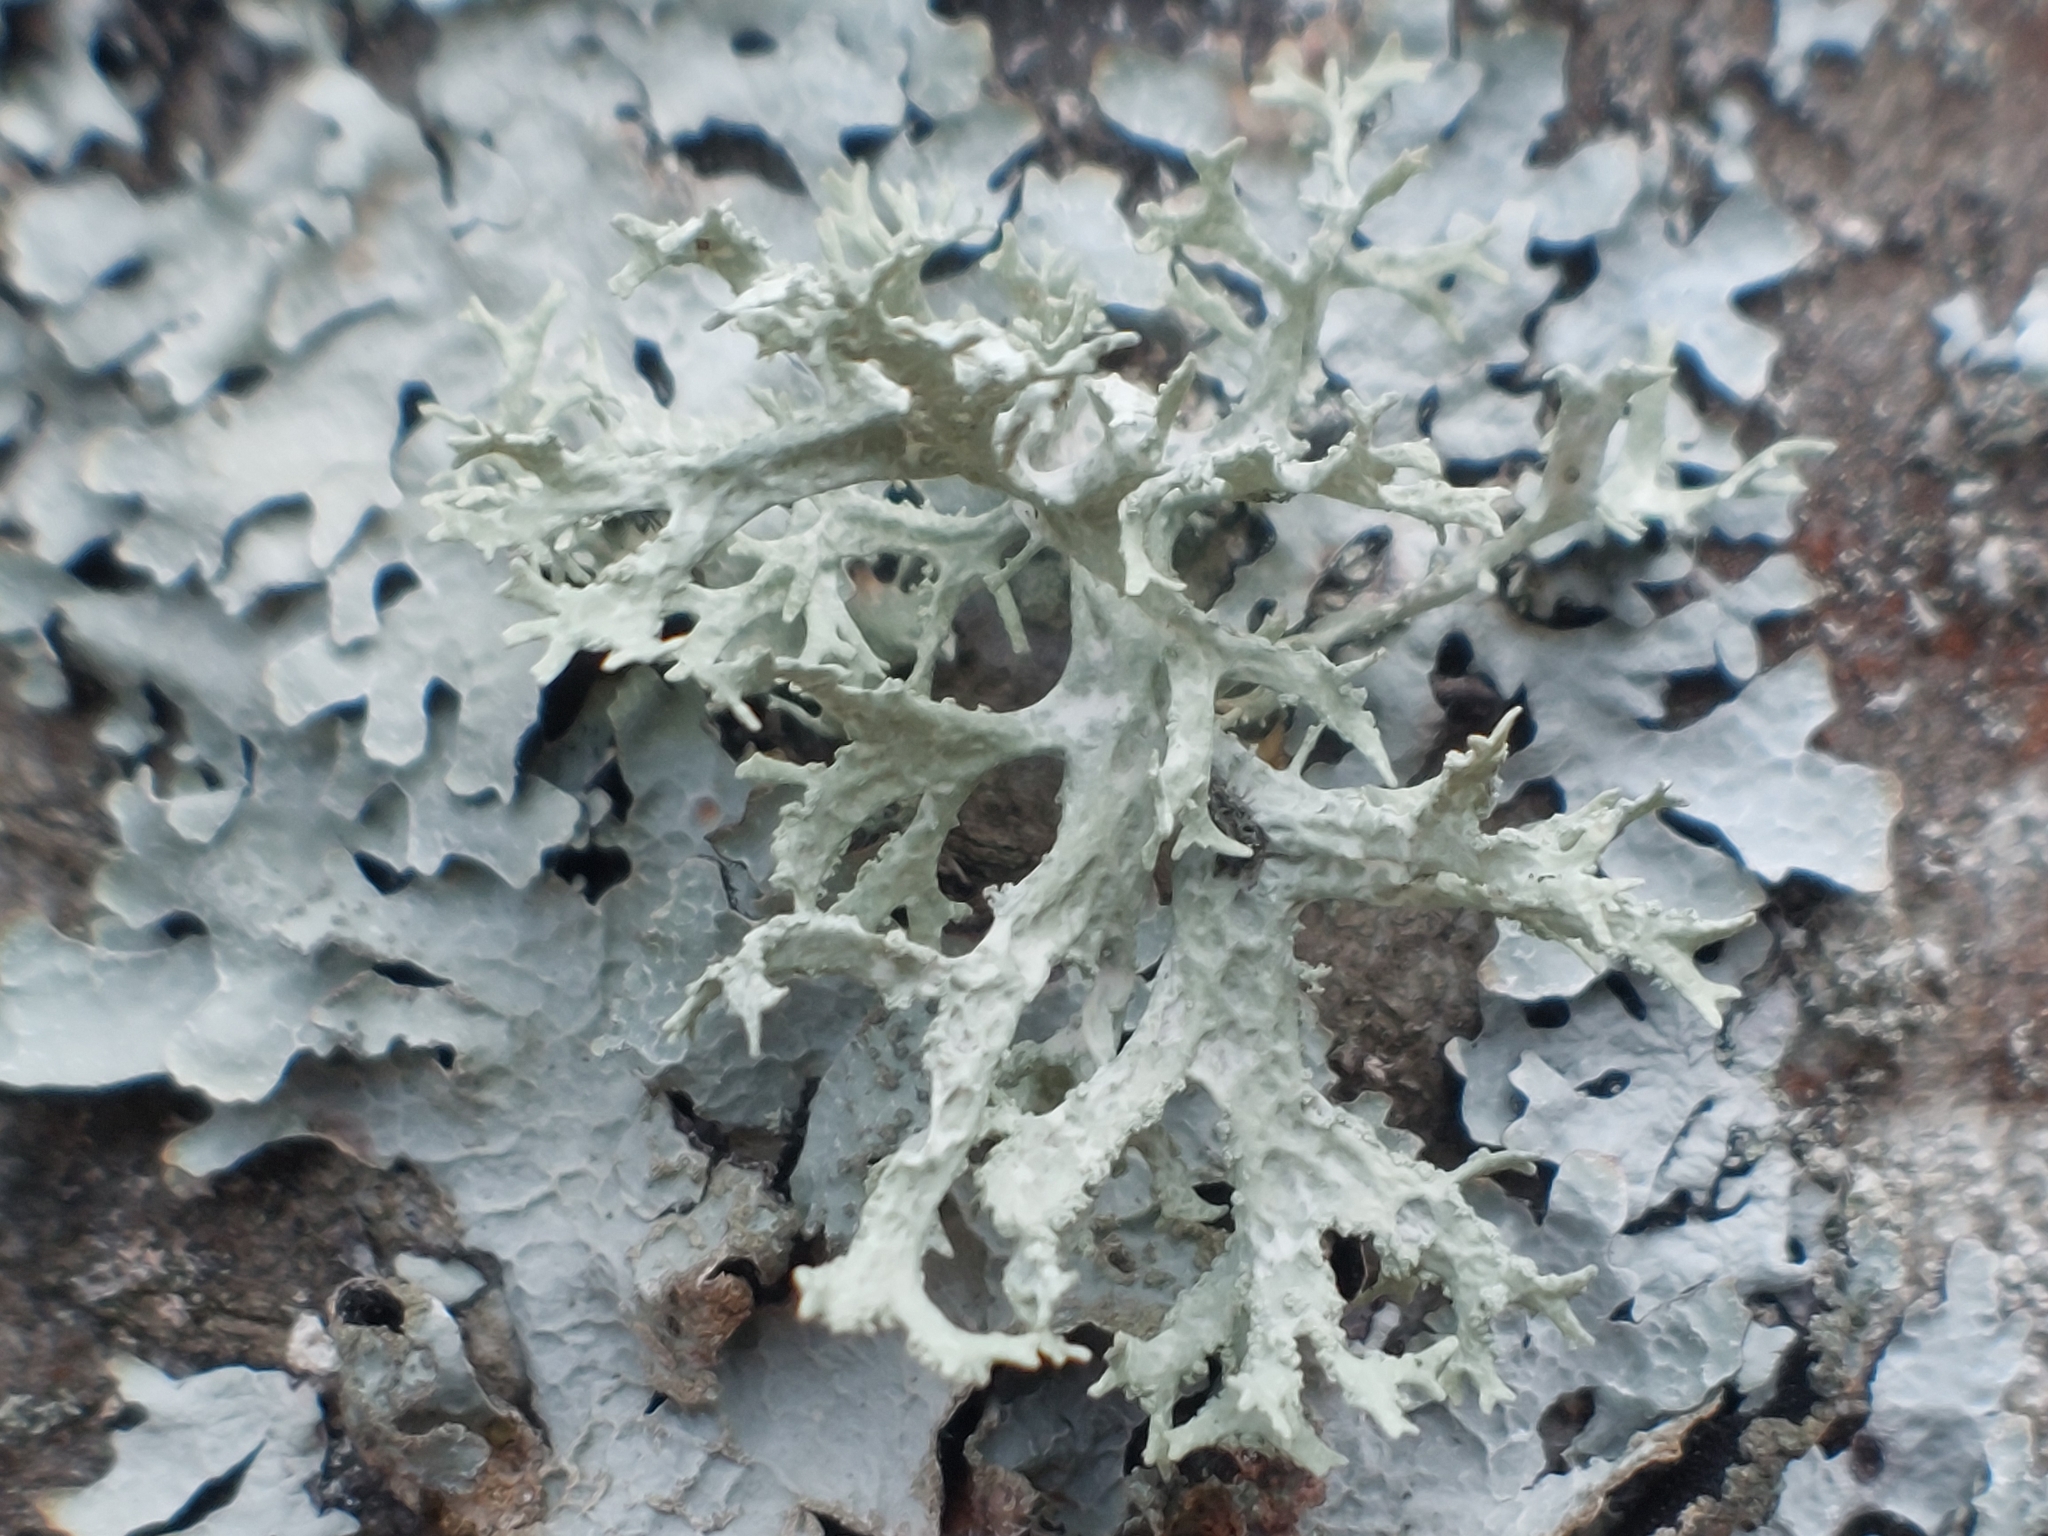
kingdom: Fungi
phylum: Ascomycota
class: Lecanoromycetes
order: Lecanorales
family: Parmeliaceae
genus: Evernia
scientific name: Evernia prunastri
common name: Oak moss
